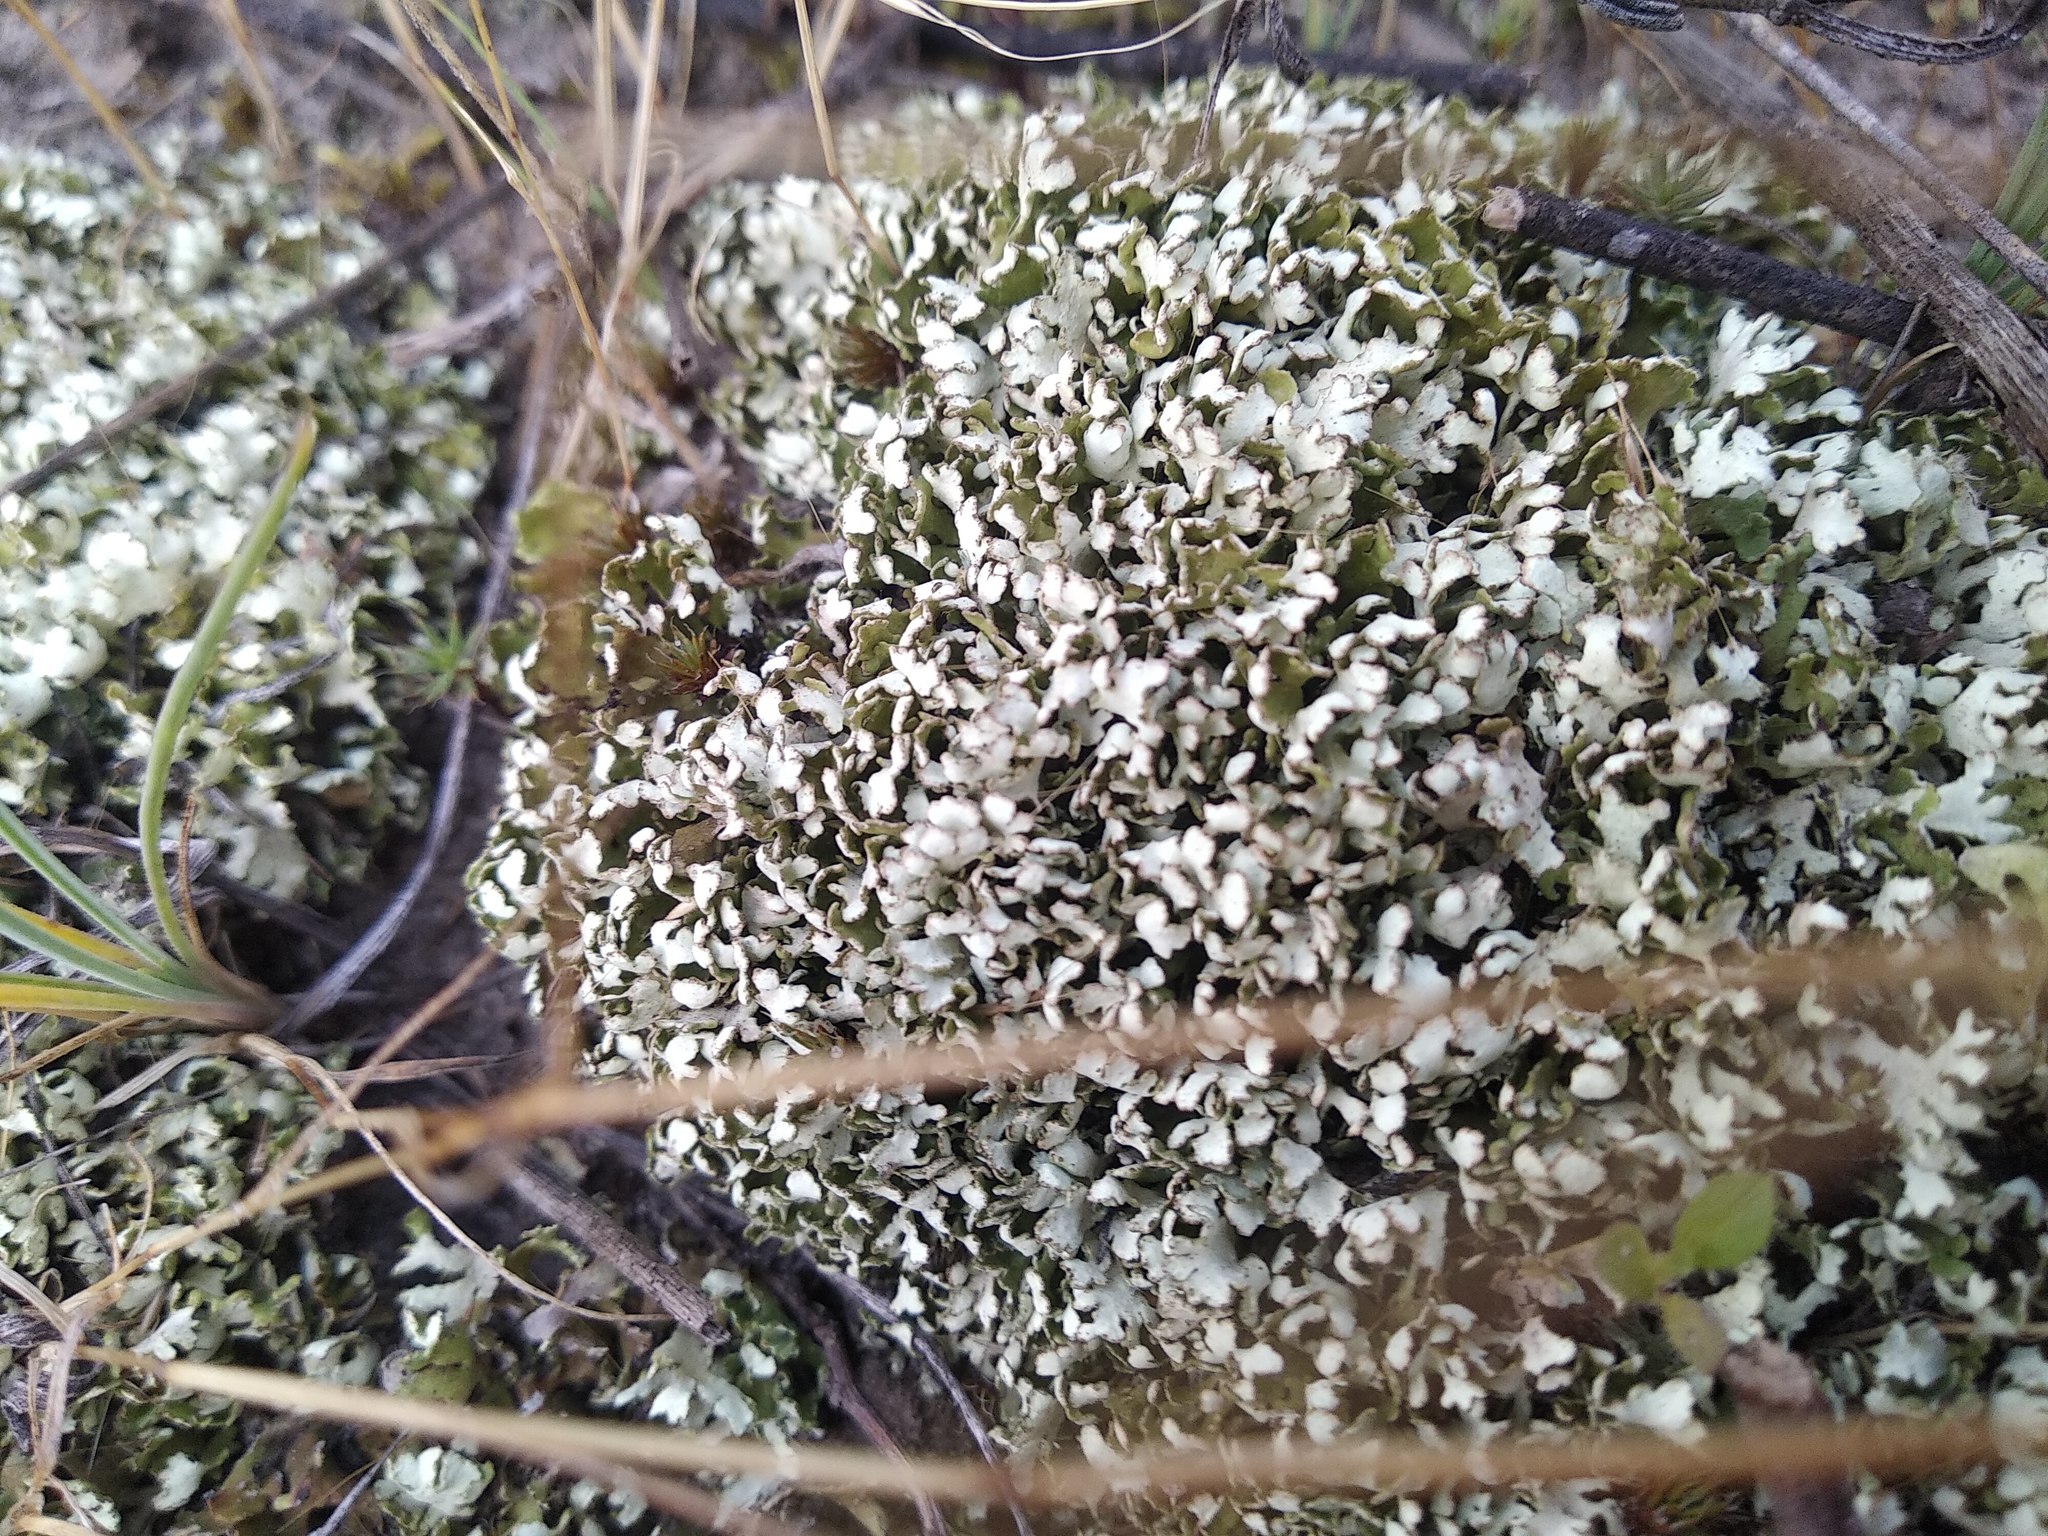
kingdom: Fungi
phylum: Ascomycota
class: Lecanoromycetes
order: Lecanorales
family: Cladoniaceae
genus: Cladonia
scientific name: Cladonia foliacea
